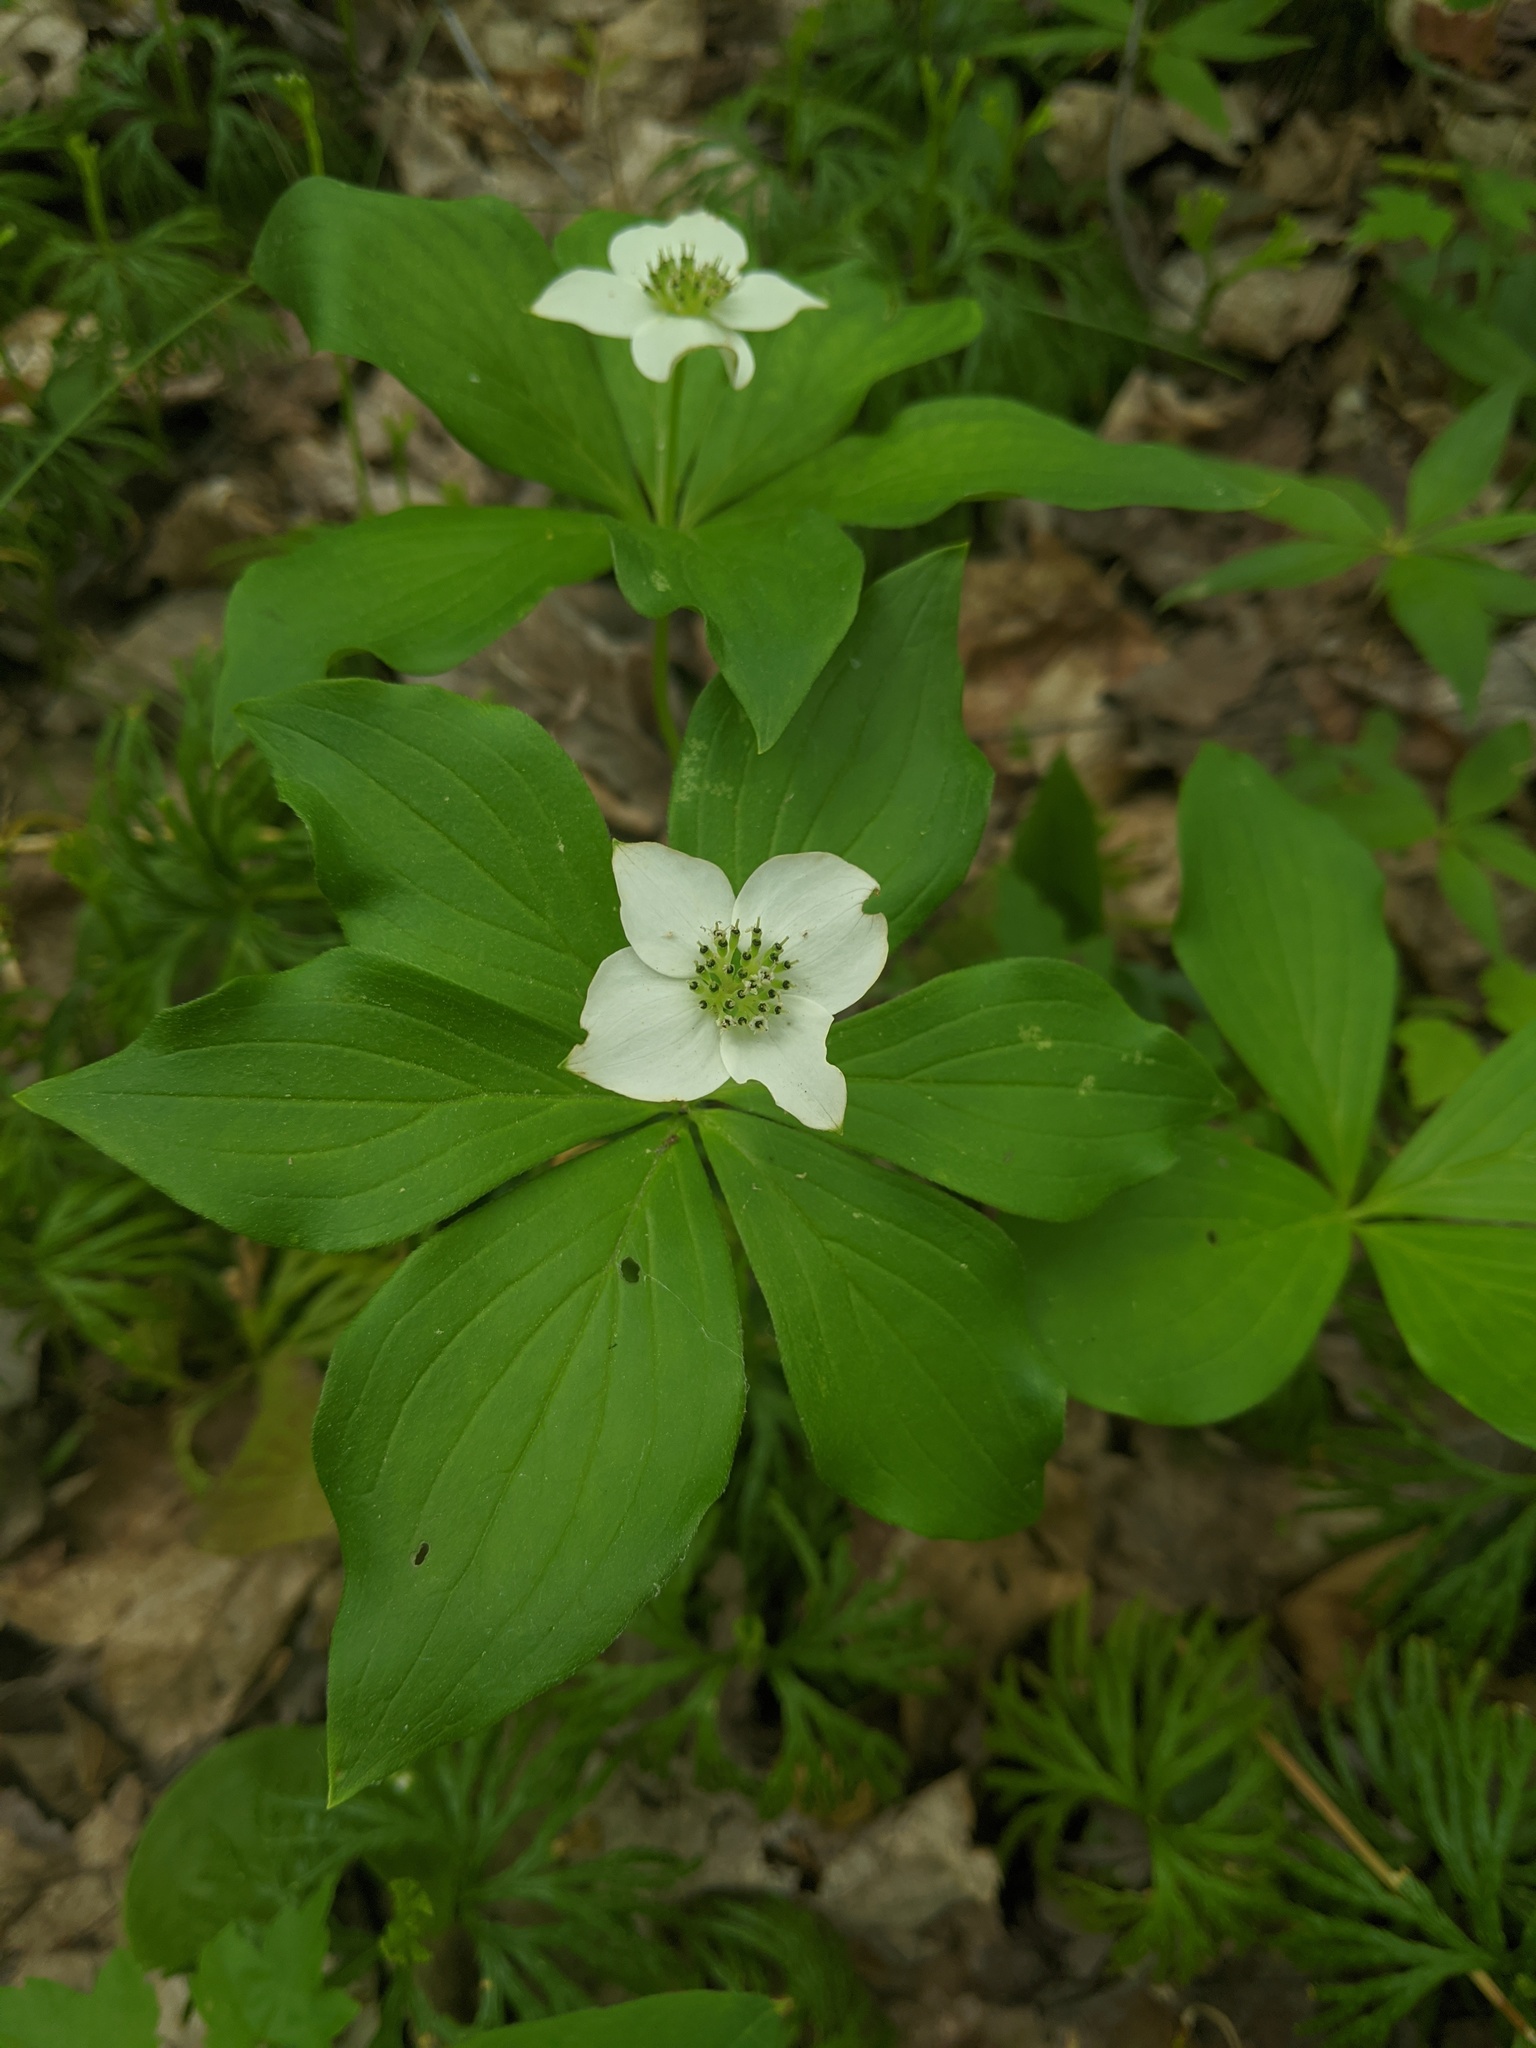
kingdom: Plantae
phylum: Tracheophyta
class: Magnoliopsida
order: Cornales
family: Cornaceae
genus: Cornus
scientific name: Cornus canadensis
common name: Creeping dogwood
